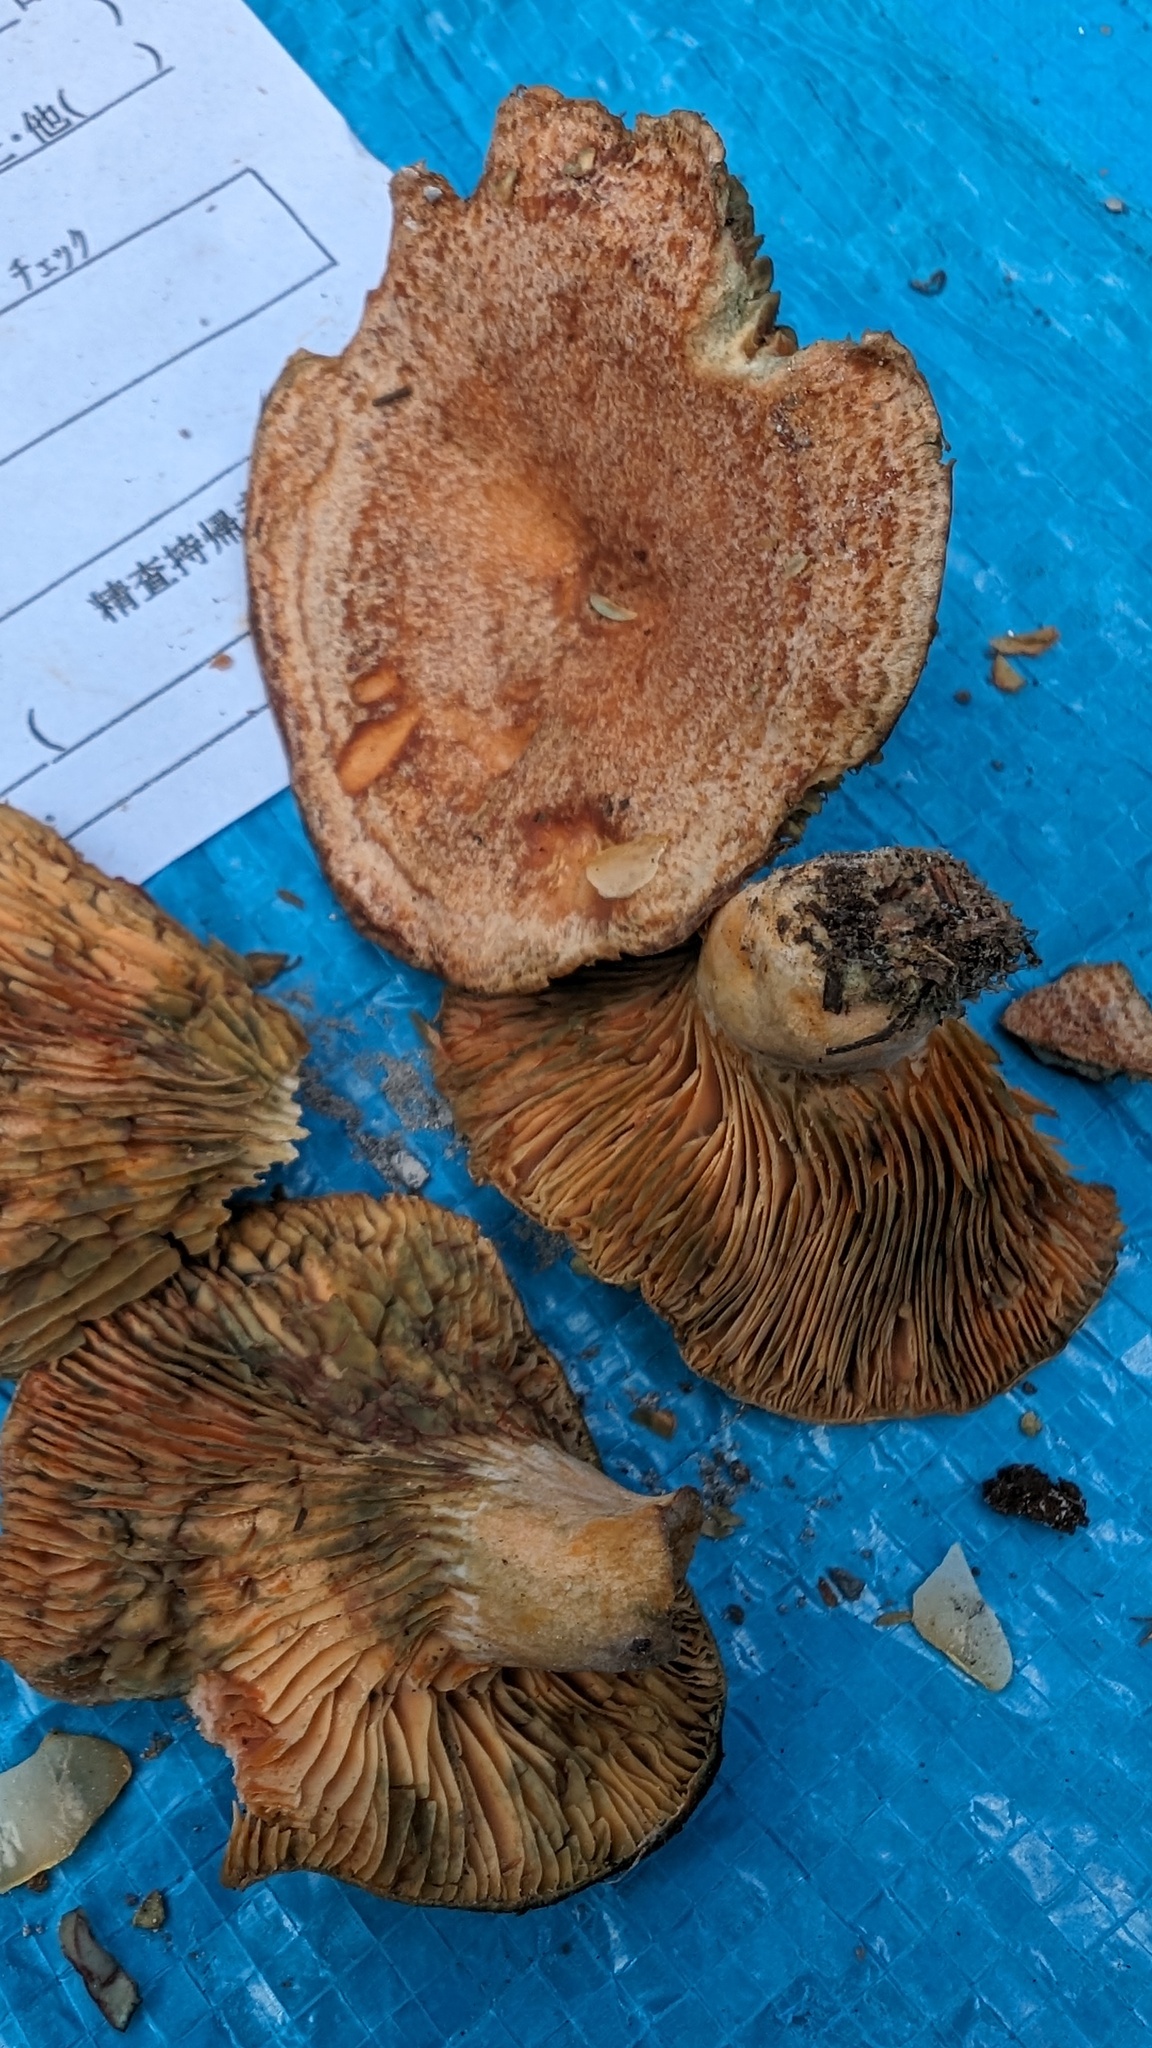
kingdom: Fungi
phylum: Basidiomycota
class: Agaricomycetes
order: Russulales
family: Russulaceae
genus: Lactarius
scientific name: Lactarius hatsudake
